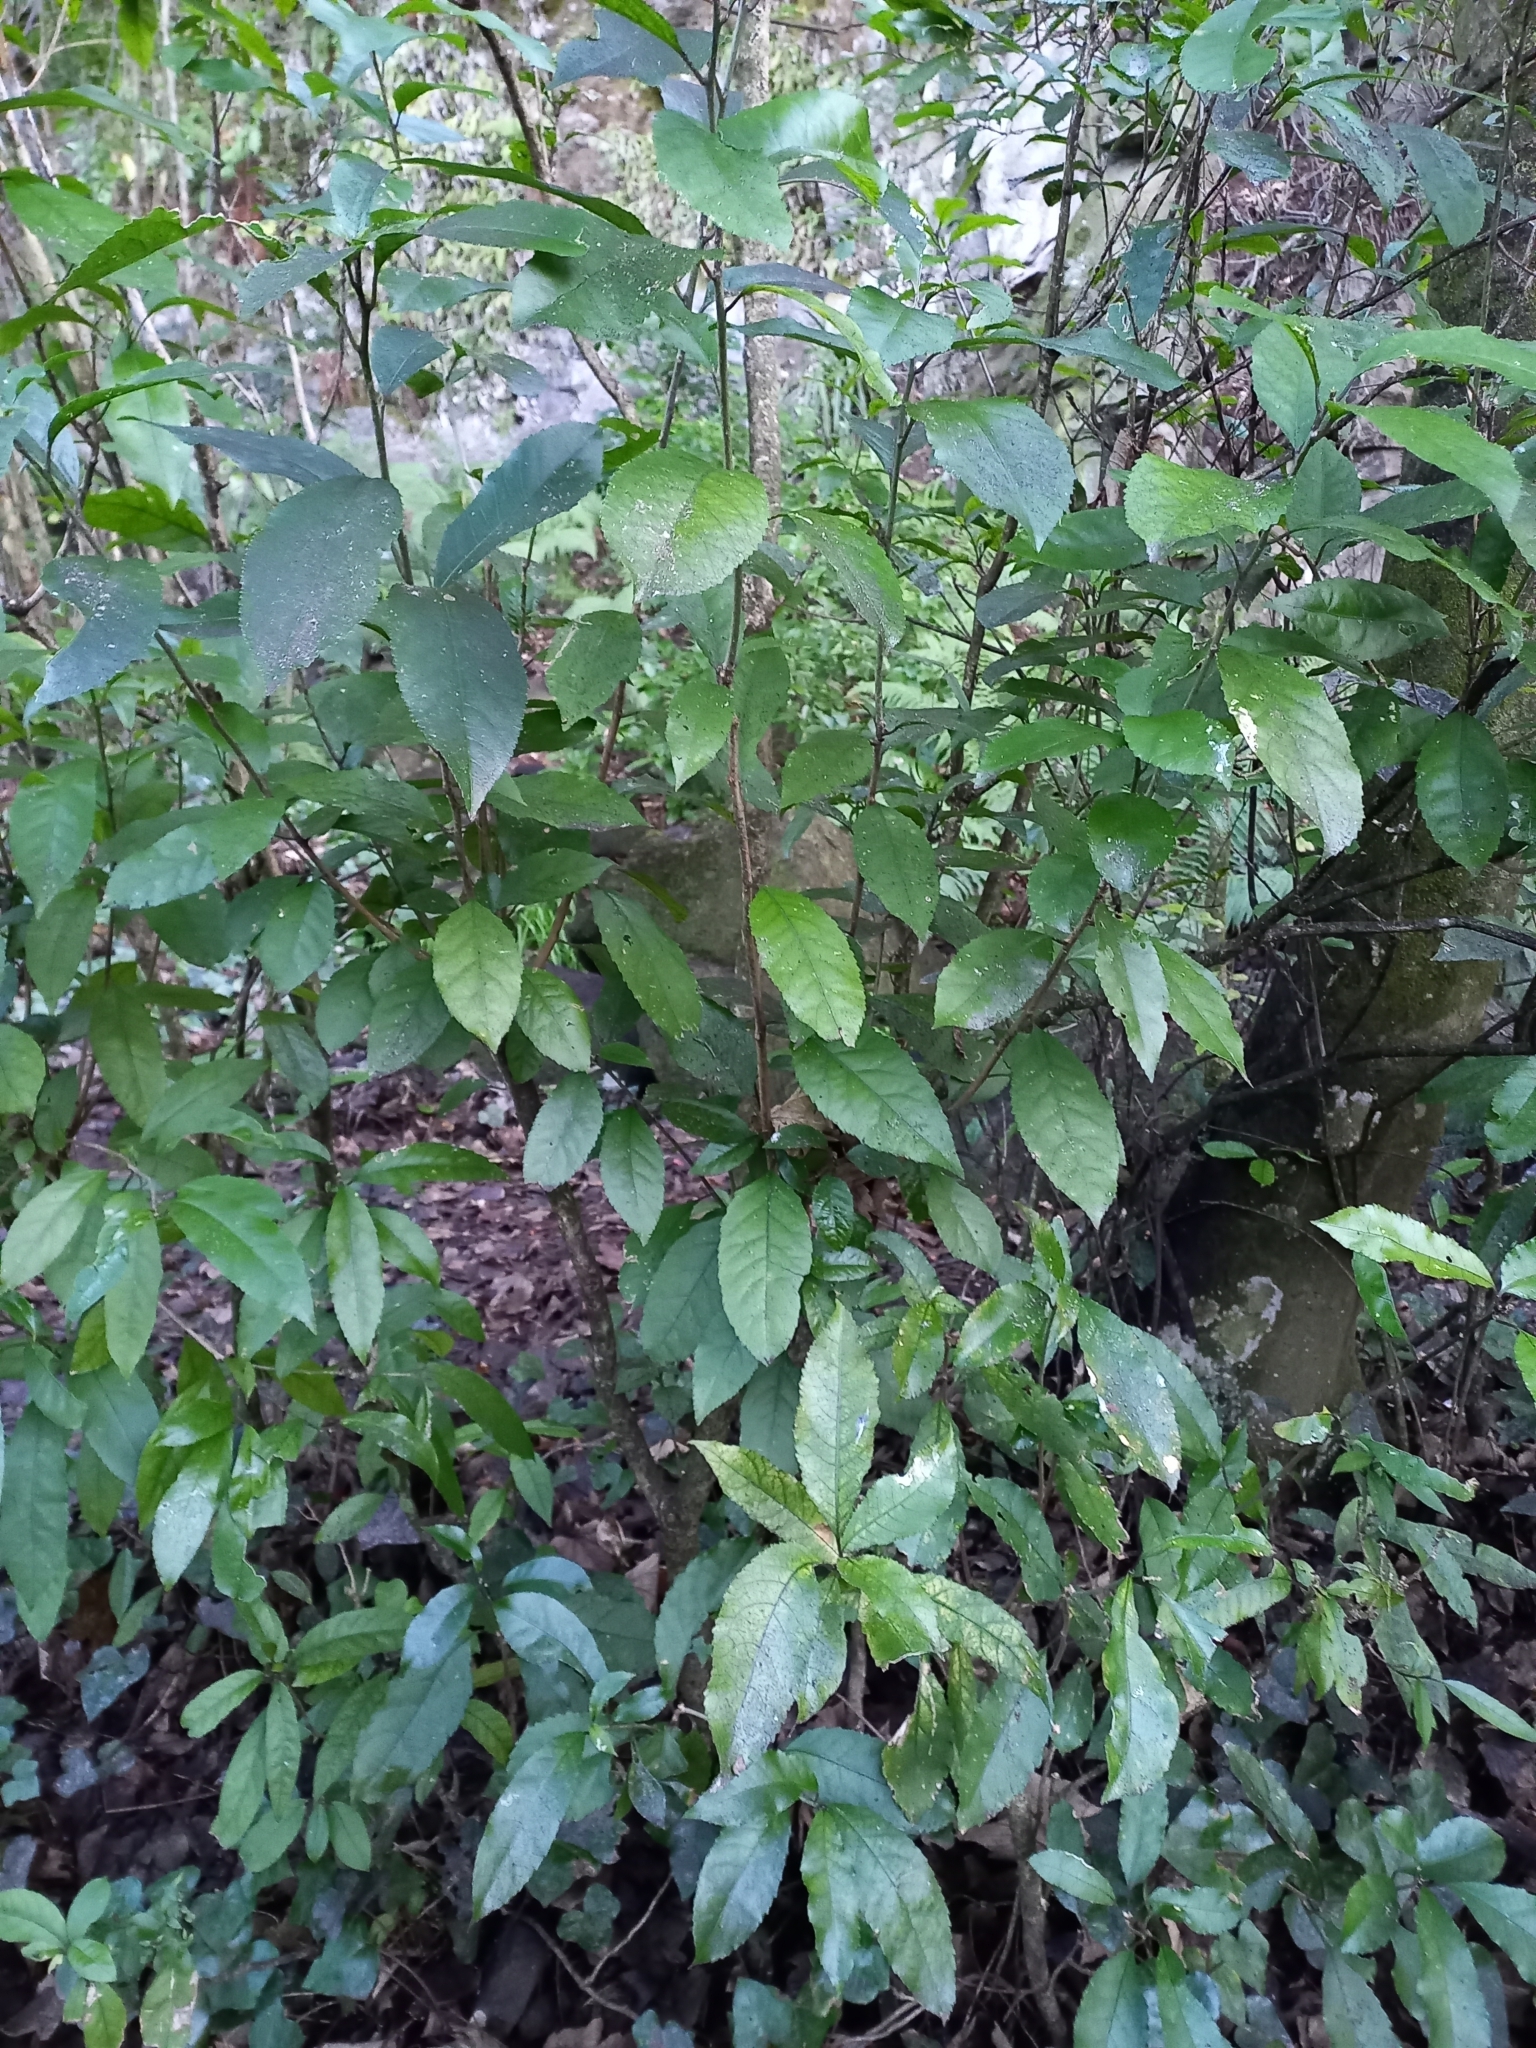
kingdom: Plantae
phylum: Tracheophyta
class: Magnoliopsida
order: Malpighiales
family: Violaceae
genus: Melicytus
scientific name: Melicytus ramiflorus
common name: Mahoe
